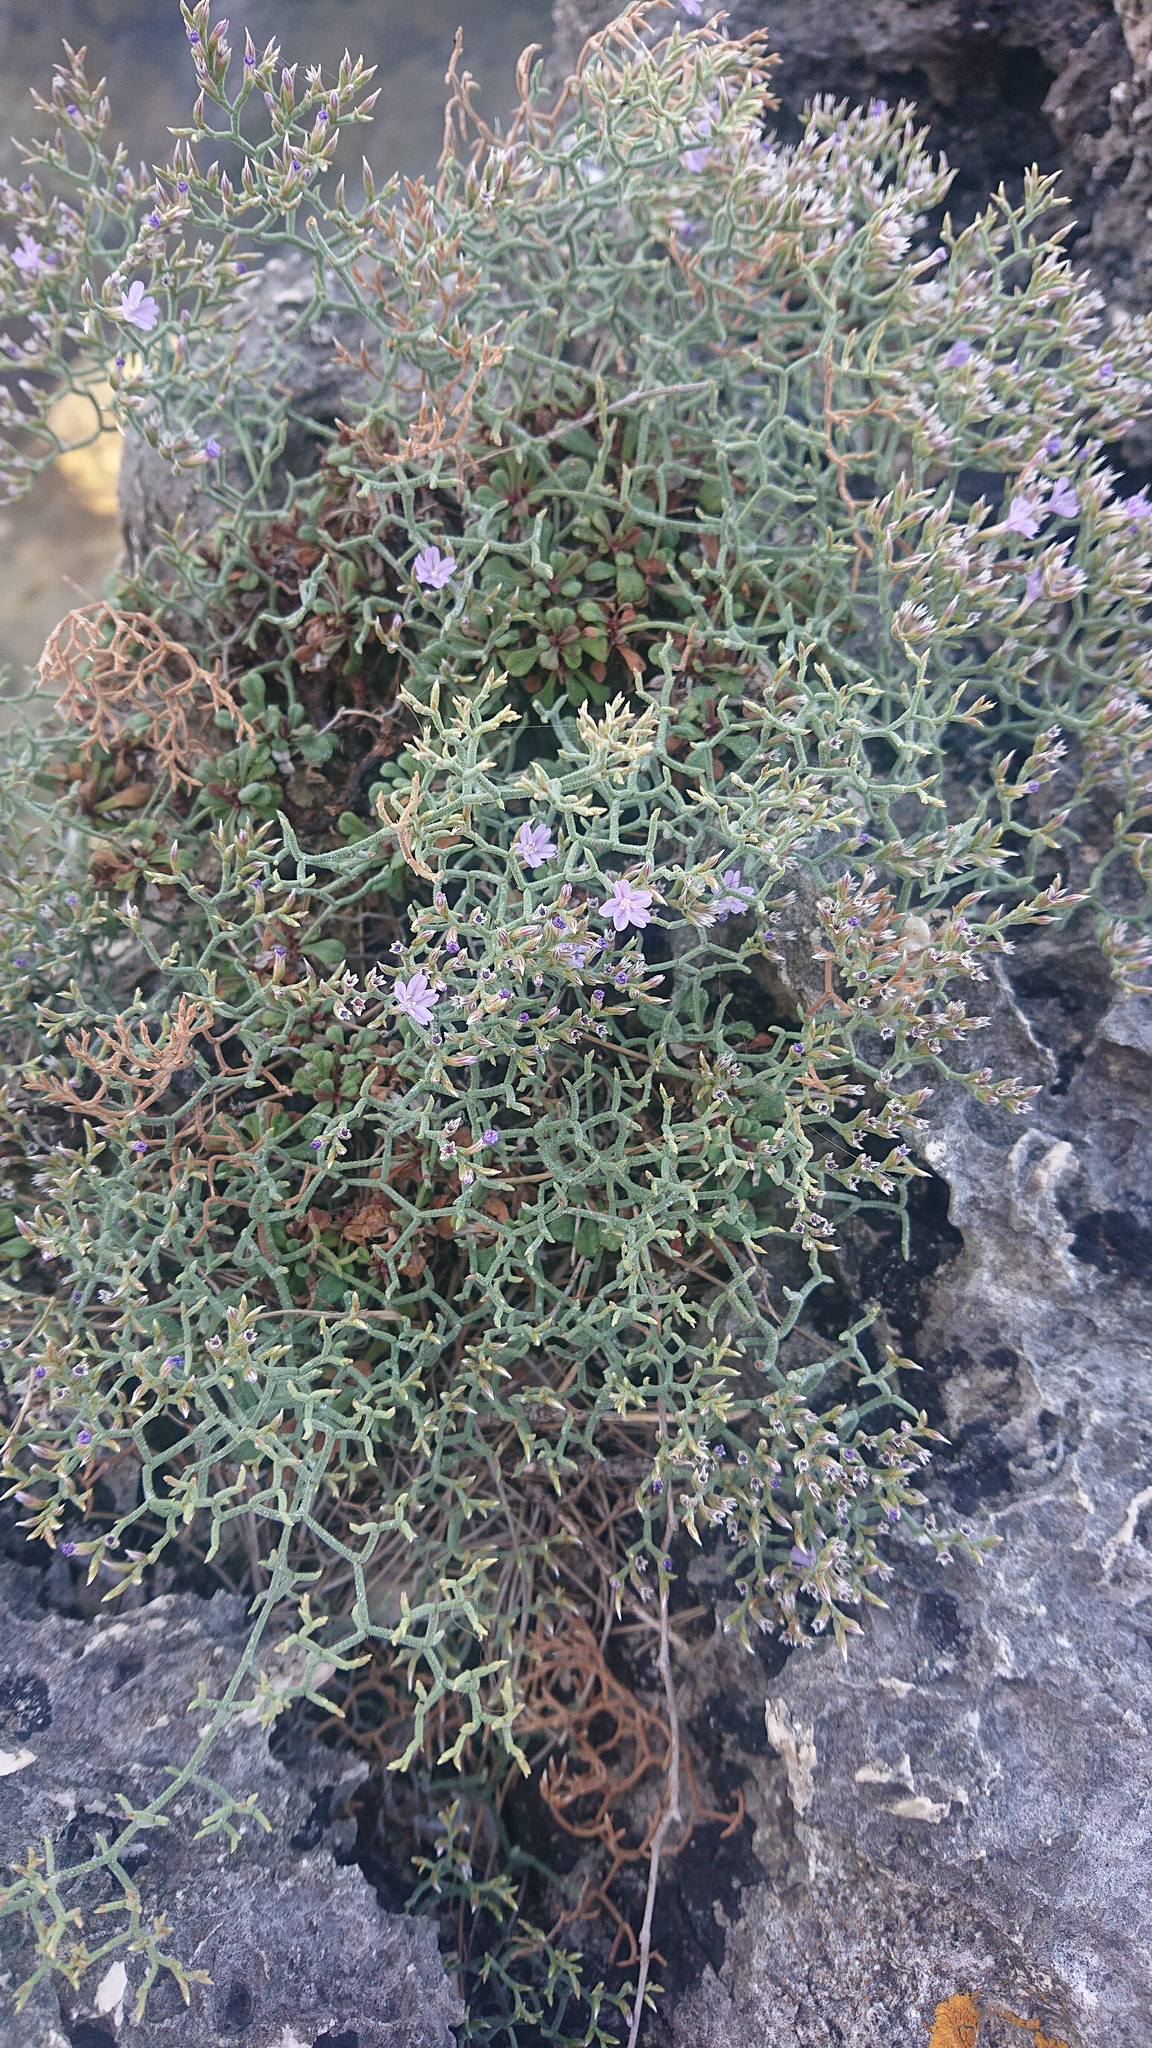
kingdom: Plantae
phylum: Tracheophyta
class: Magnoliopsida
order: Caryophyllales
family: Plumbaginaceae
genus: Limonium
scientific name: Limonium cancellatum
